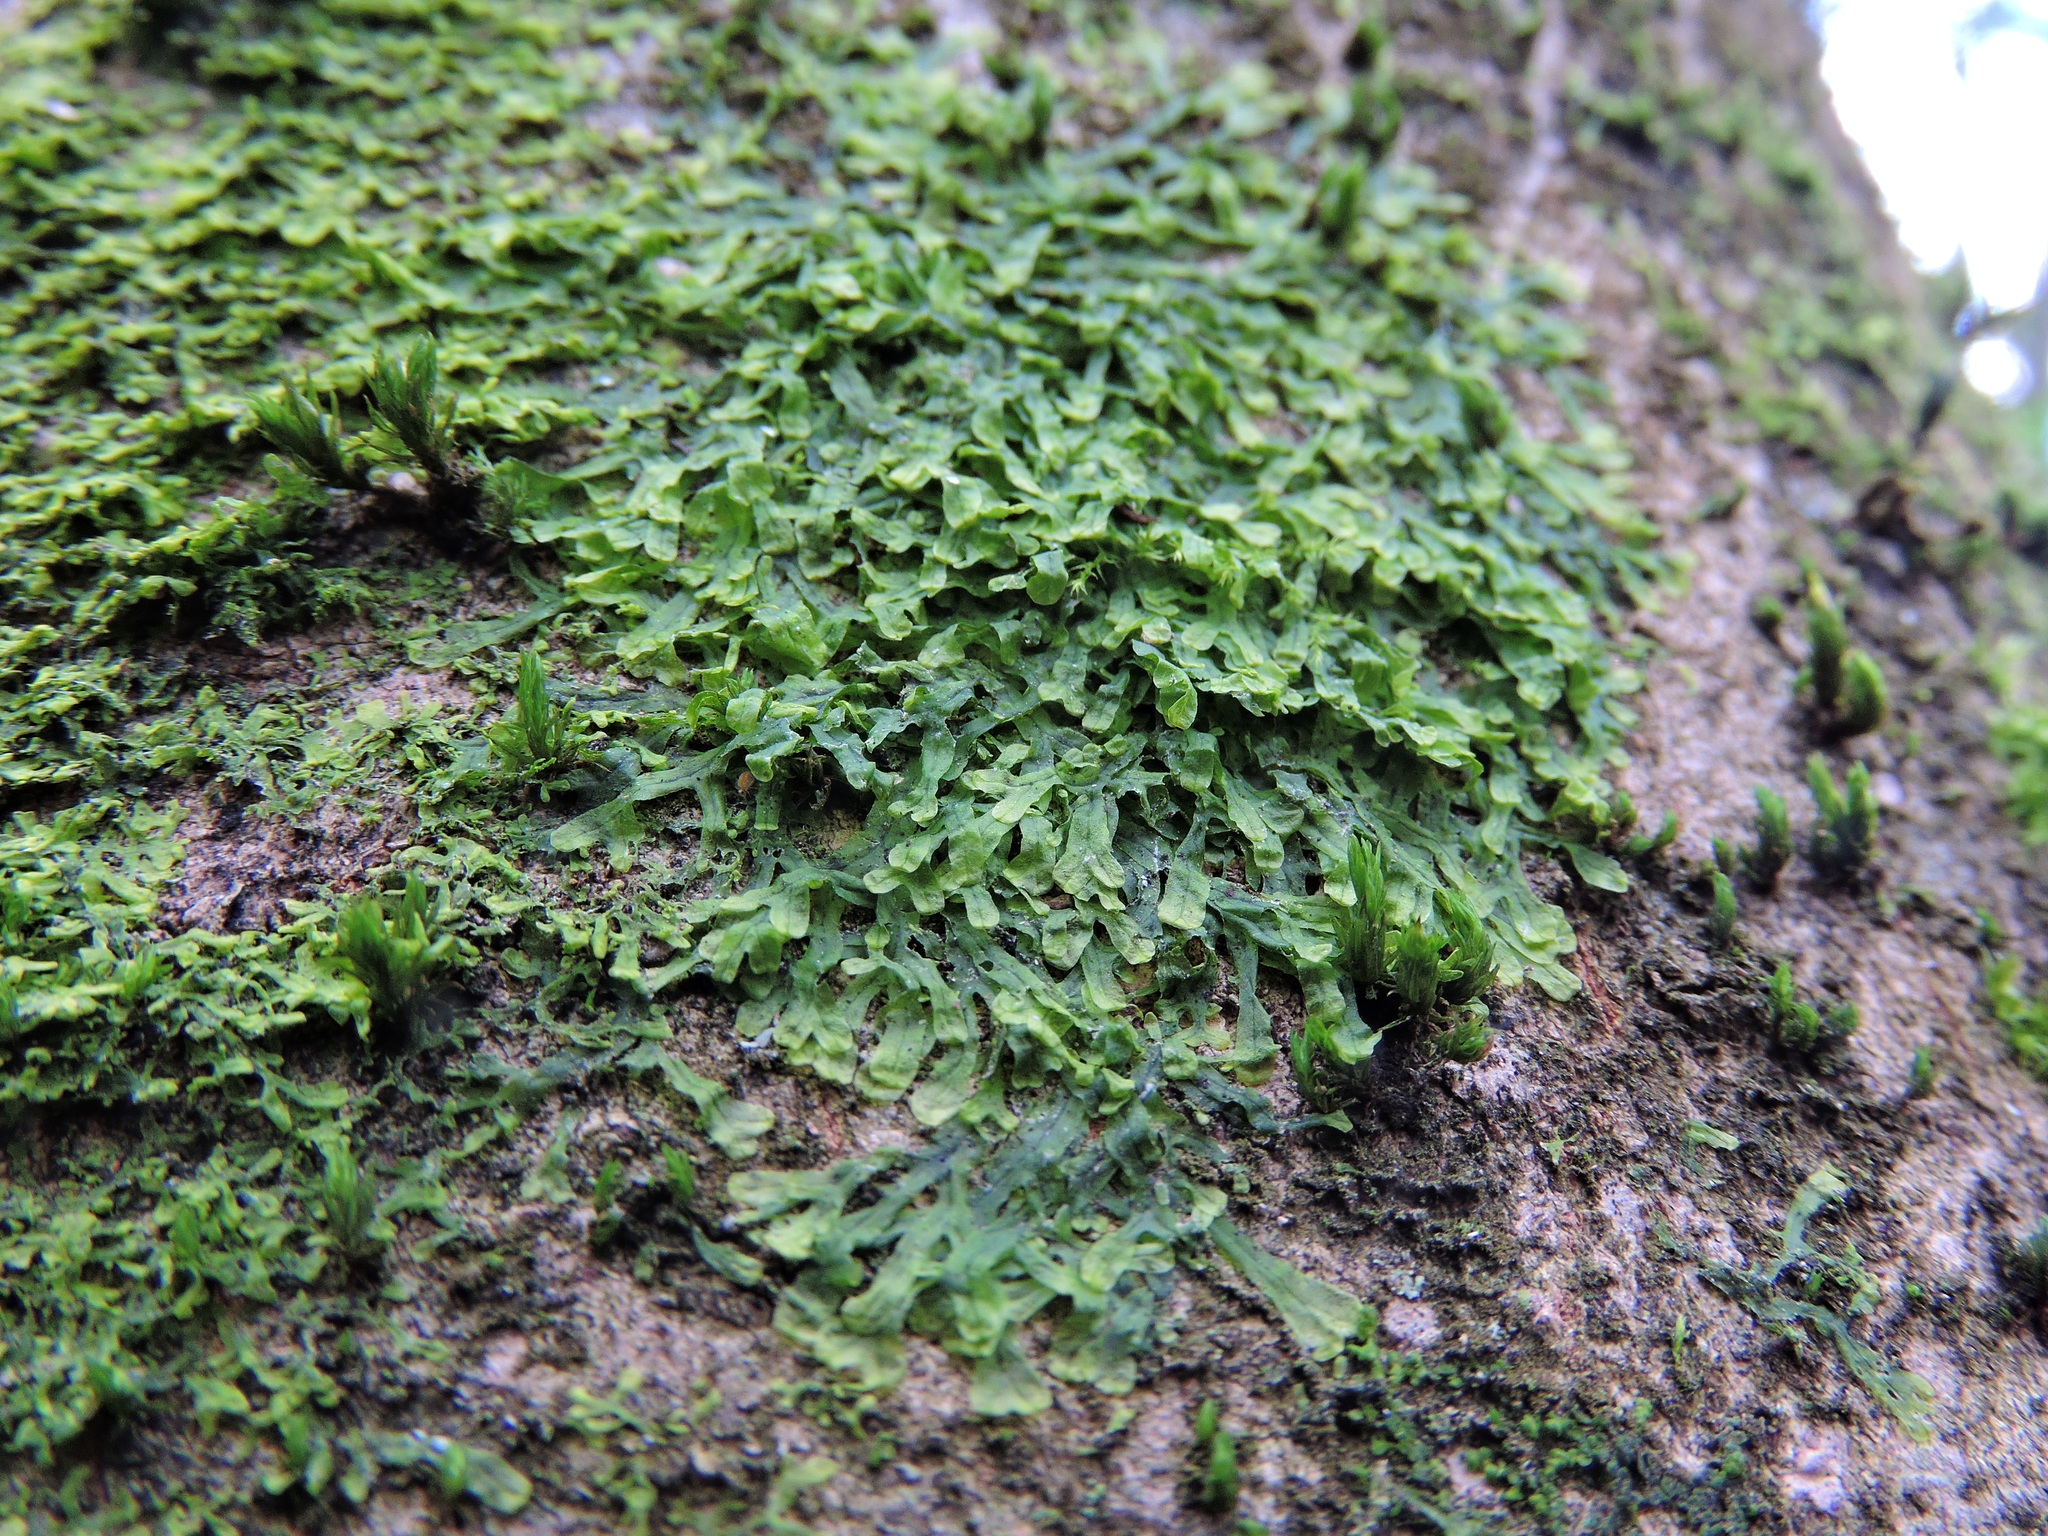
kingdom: Plantae
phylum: Marchantiophyta
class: Jungermanniopsida
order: Metzgeriales
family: Metzgeriaceae
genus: Metzgeria
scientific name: Metzgeria furcata
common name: Forked veilwort
